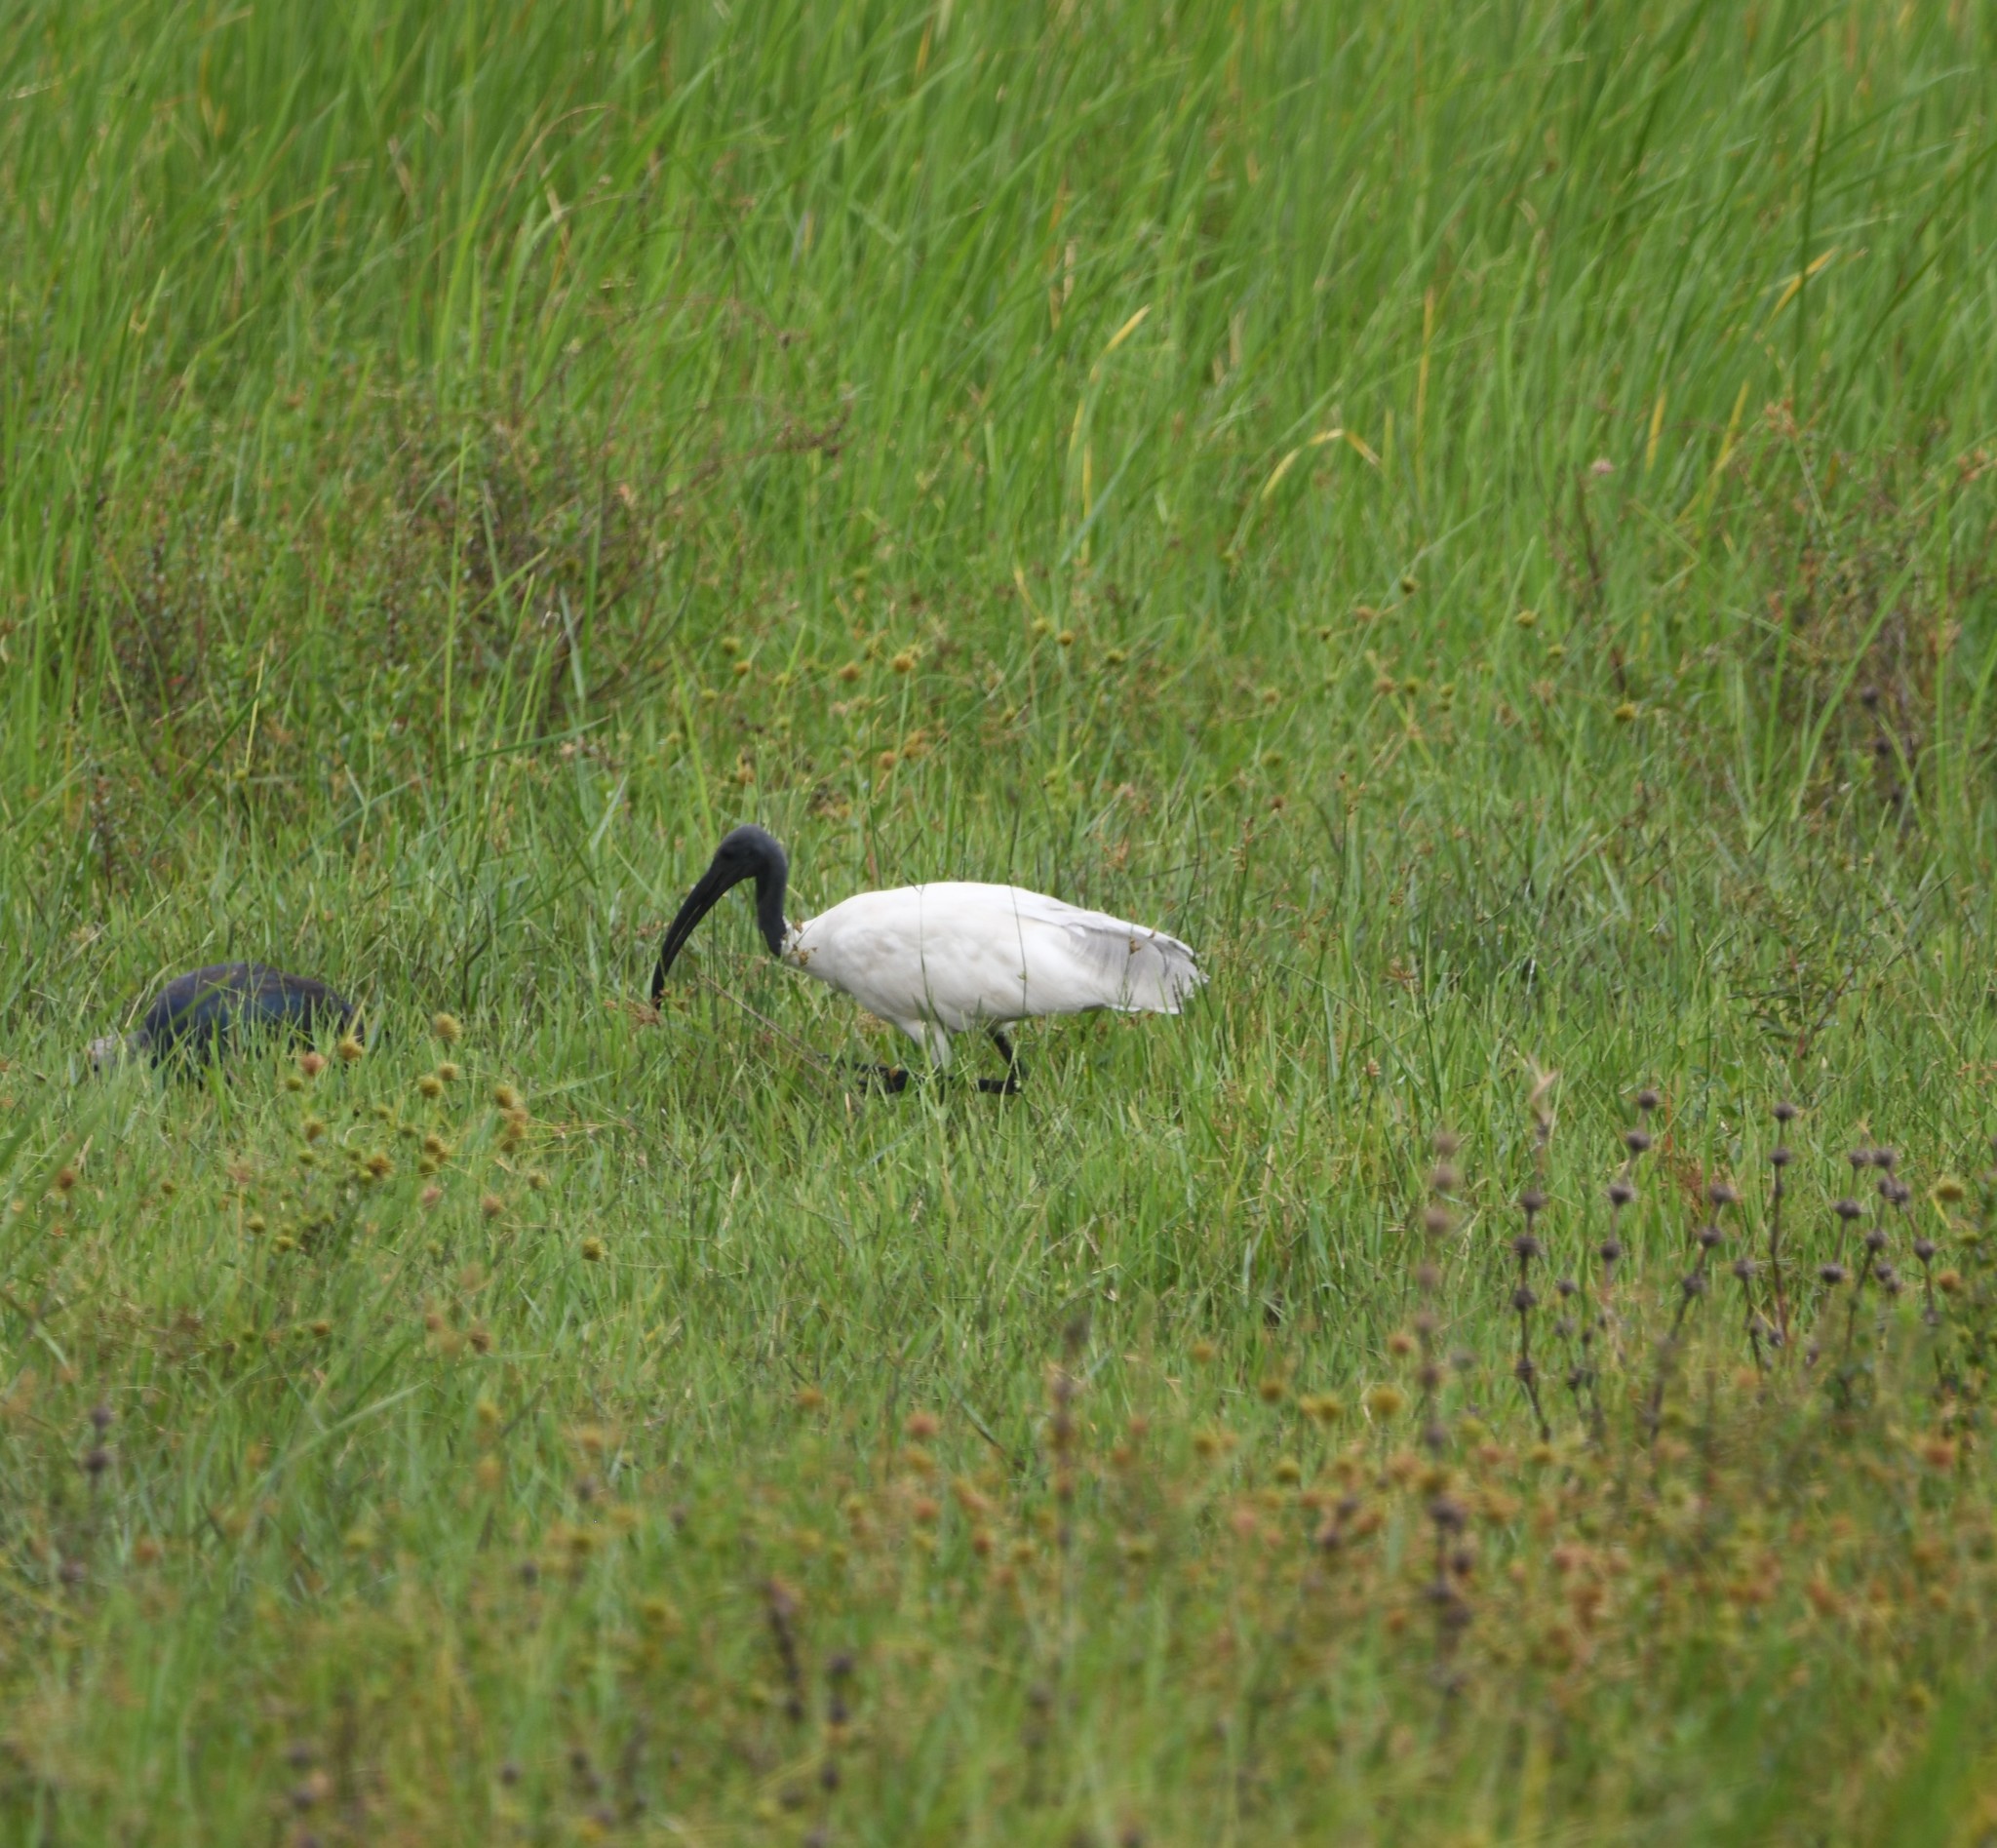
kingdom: Animalia
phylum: Chordata
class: Aves
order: Pelecaniformes
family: Threskiornithidae
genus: Threskiornis
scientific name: Threskiornis melanocephalus
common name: Black-headed ibis
